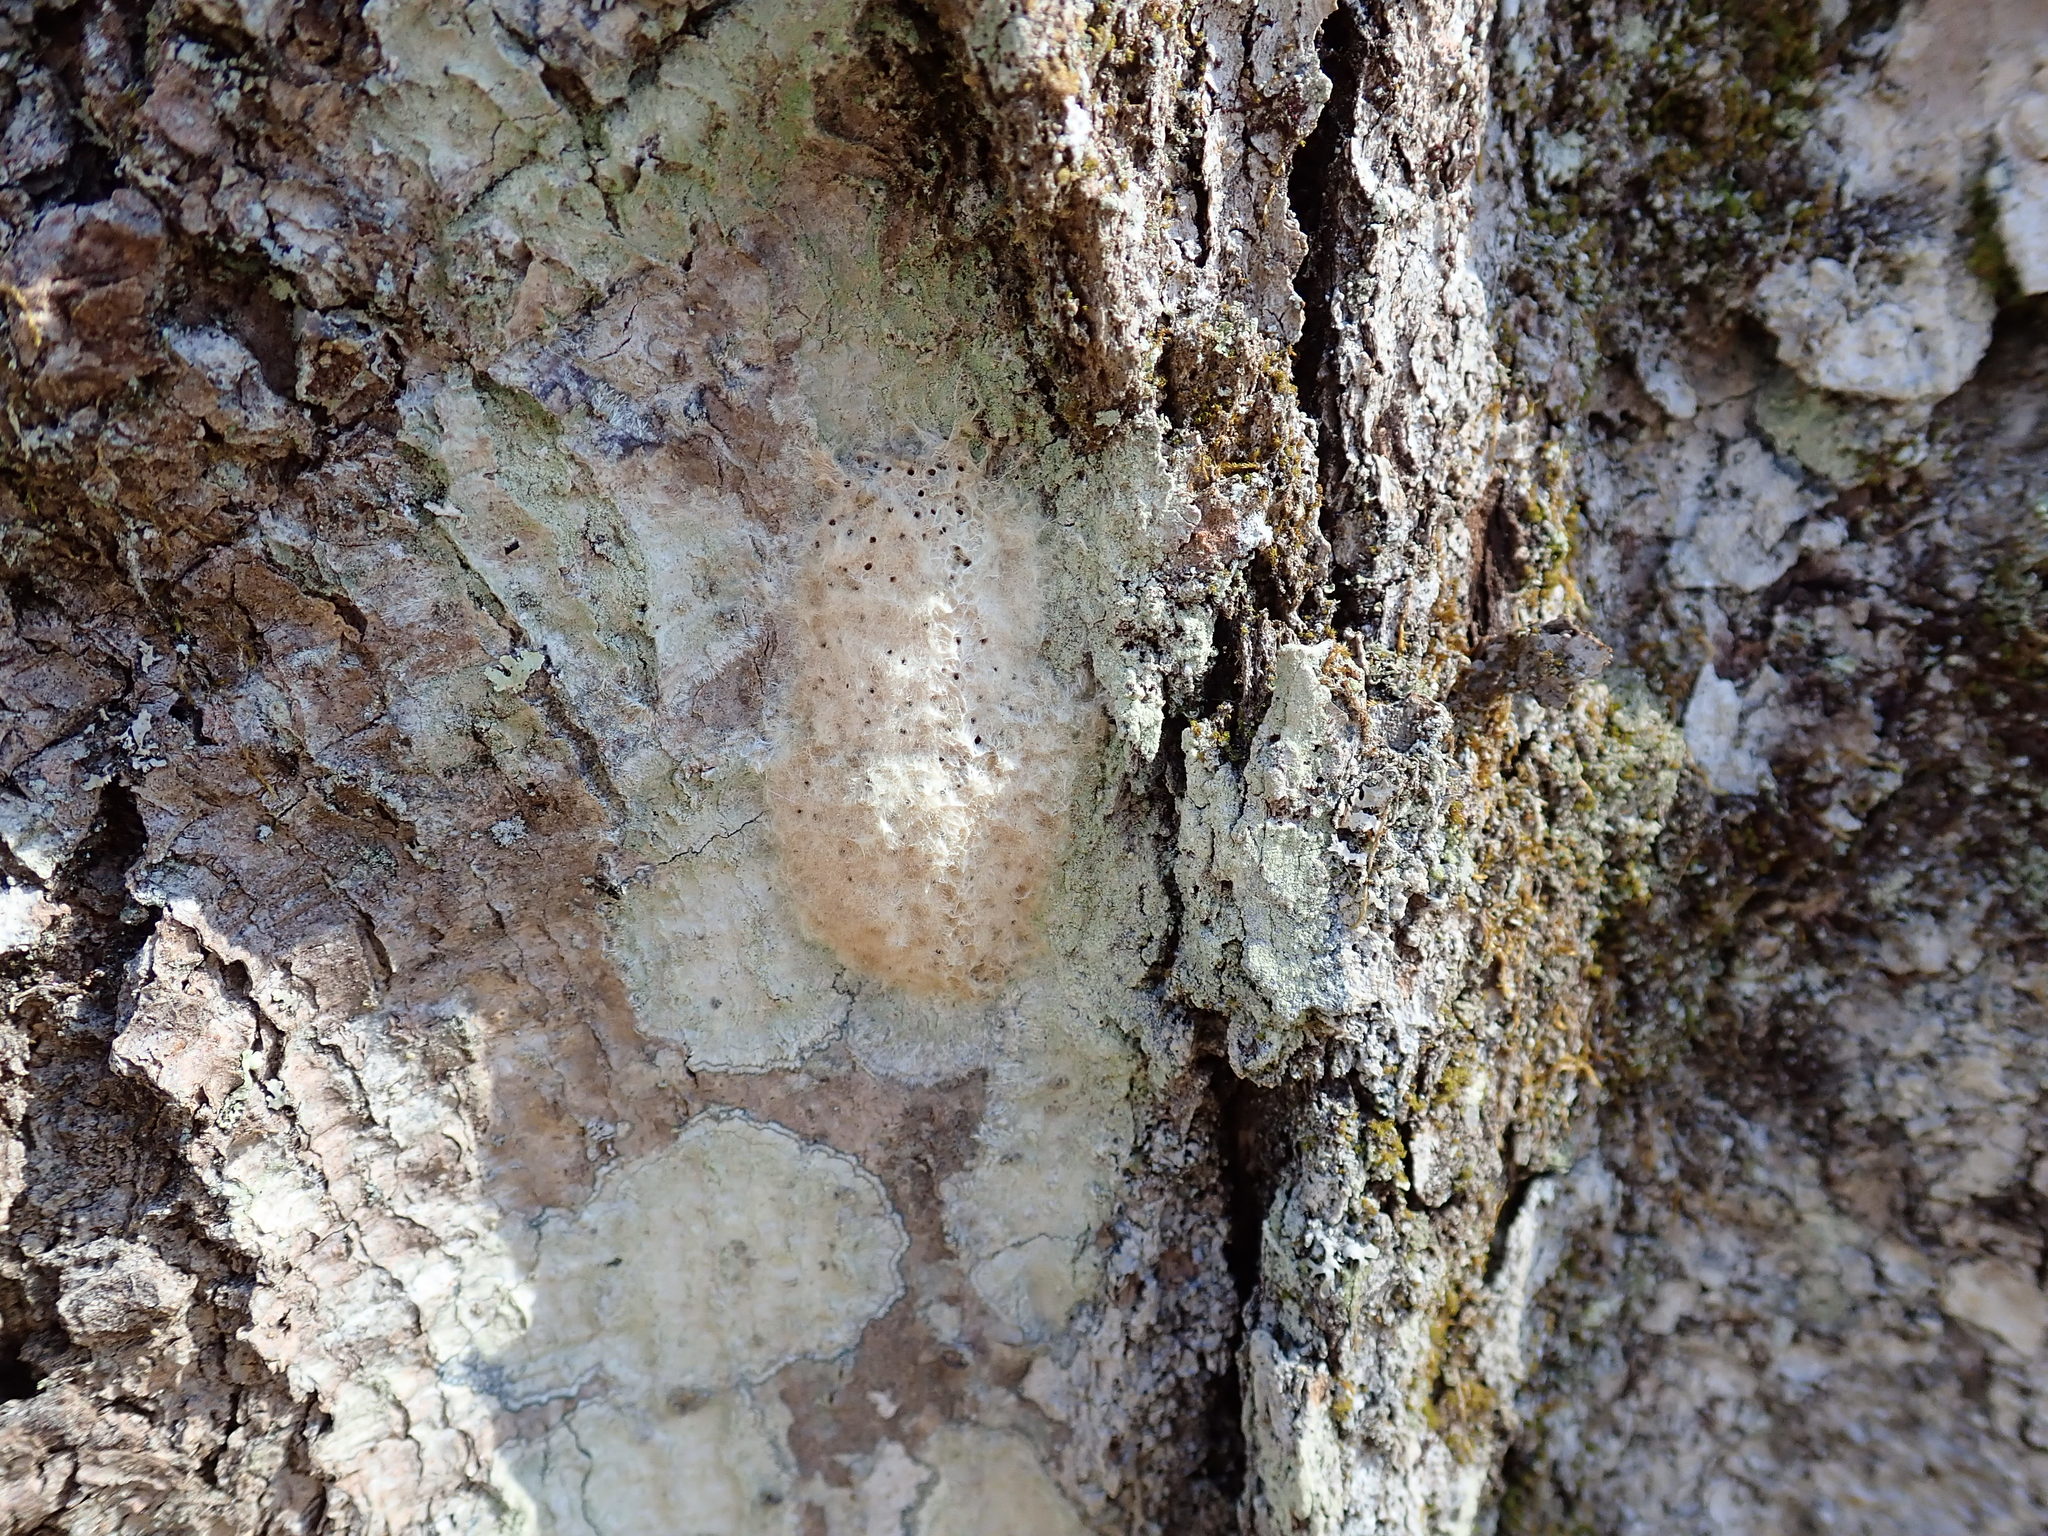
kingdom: Animalia
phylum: Arthropoda
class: Insecta
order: Lepidoptera
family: Erebidae
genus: Lymantria
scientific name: Lymantria dispar
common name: Gypsy moth
